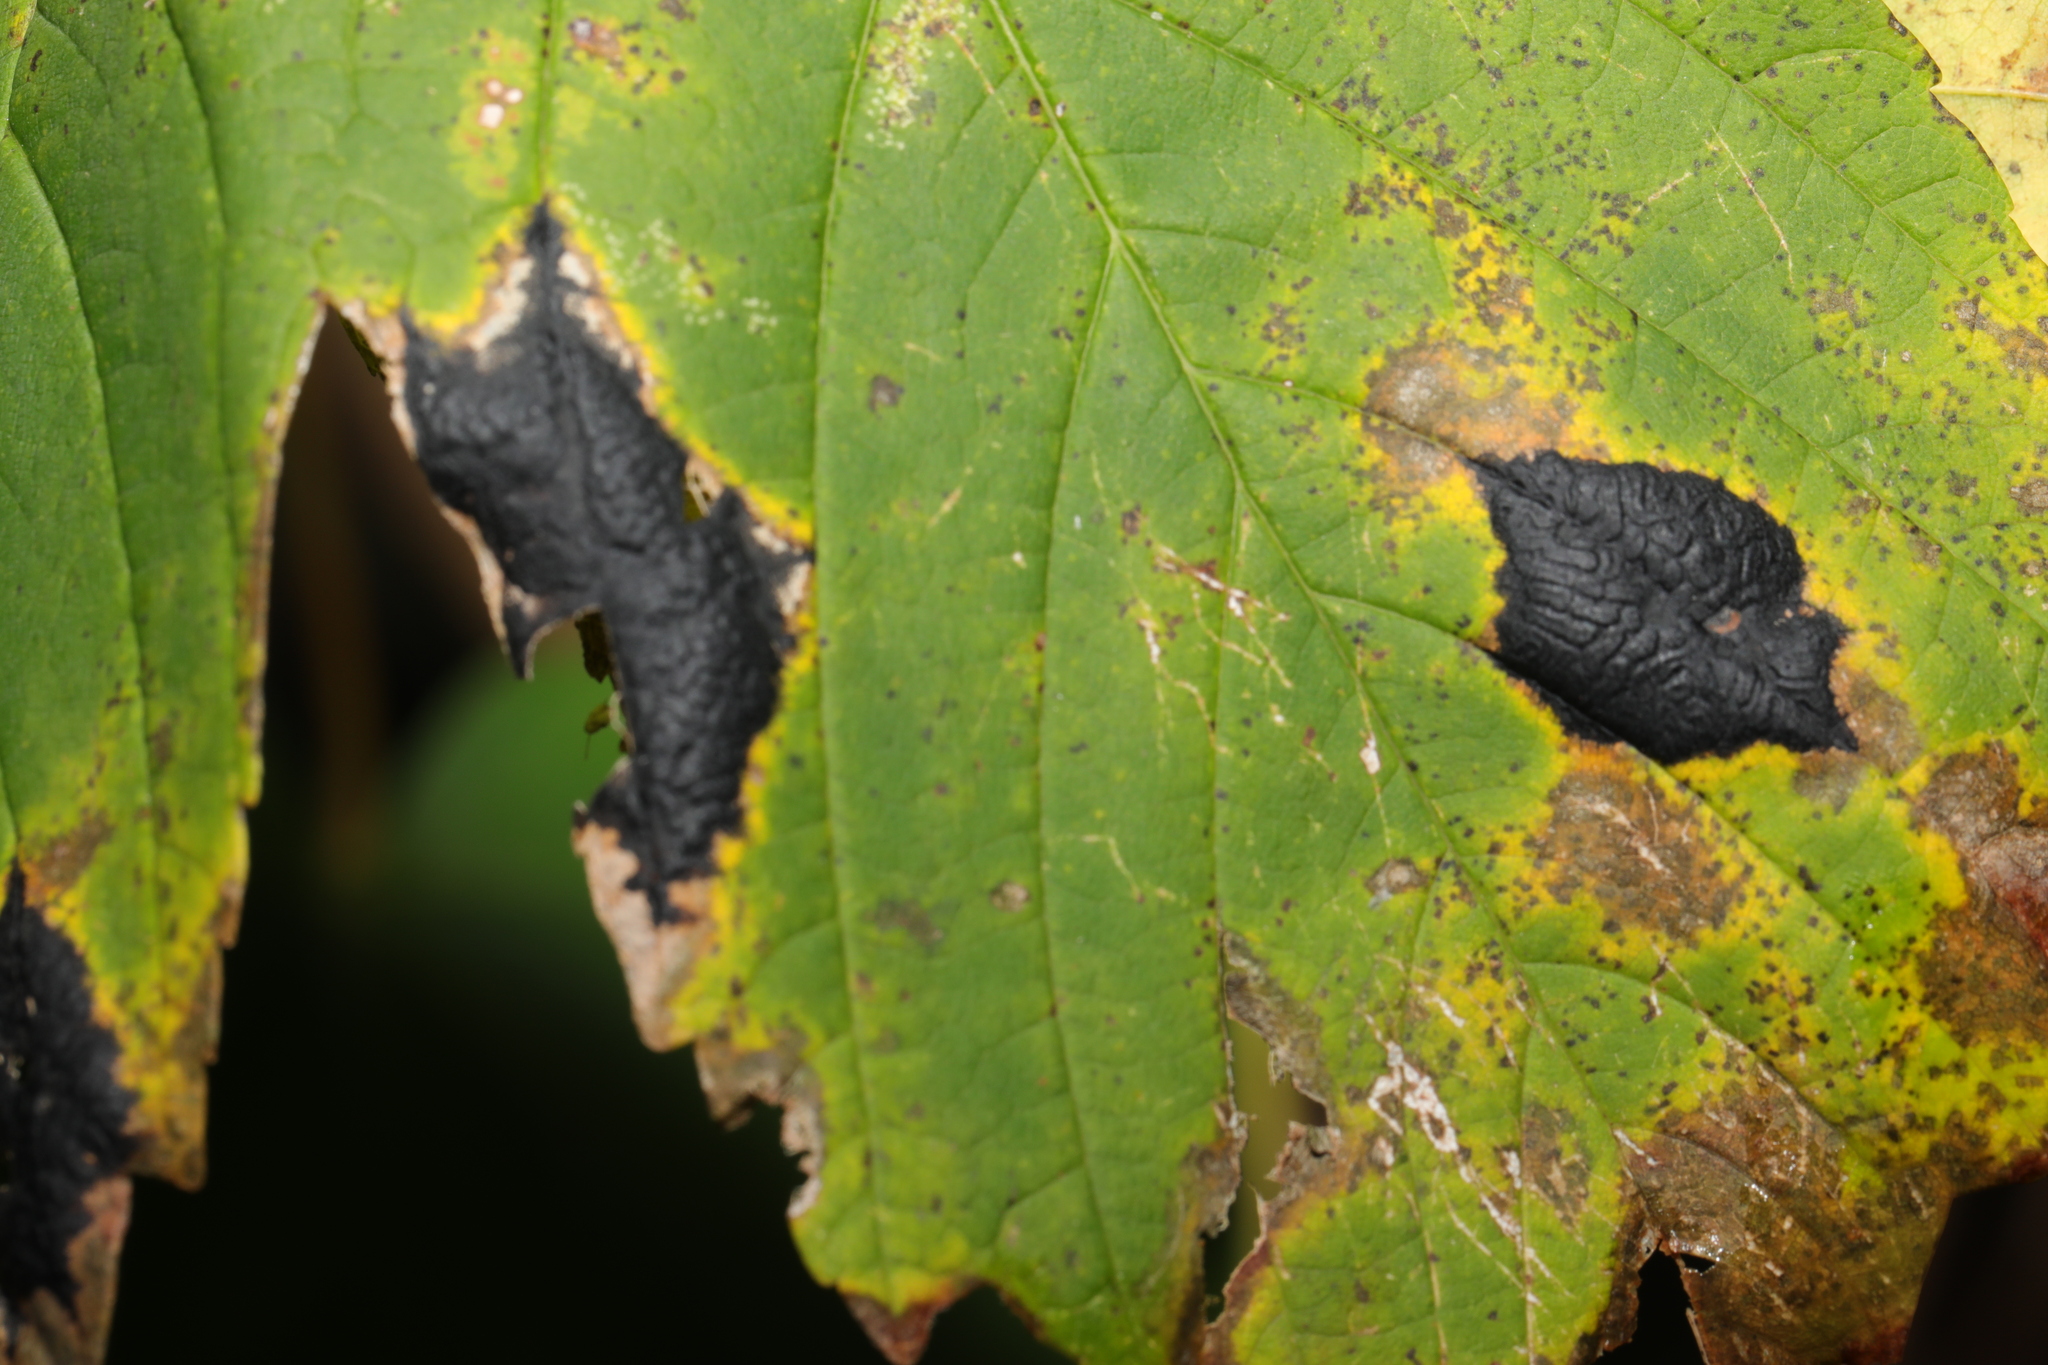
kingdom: Fungi
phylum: Ascomycota
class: Leotiomycetes
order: Rhytismatales
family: Rhytismataceae
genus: Rhytisma
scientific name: Rhytisma acerinum
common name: European tar spot
